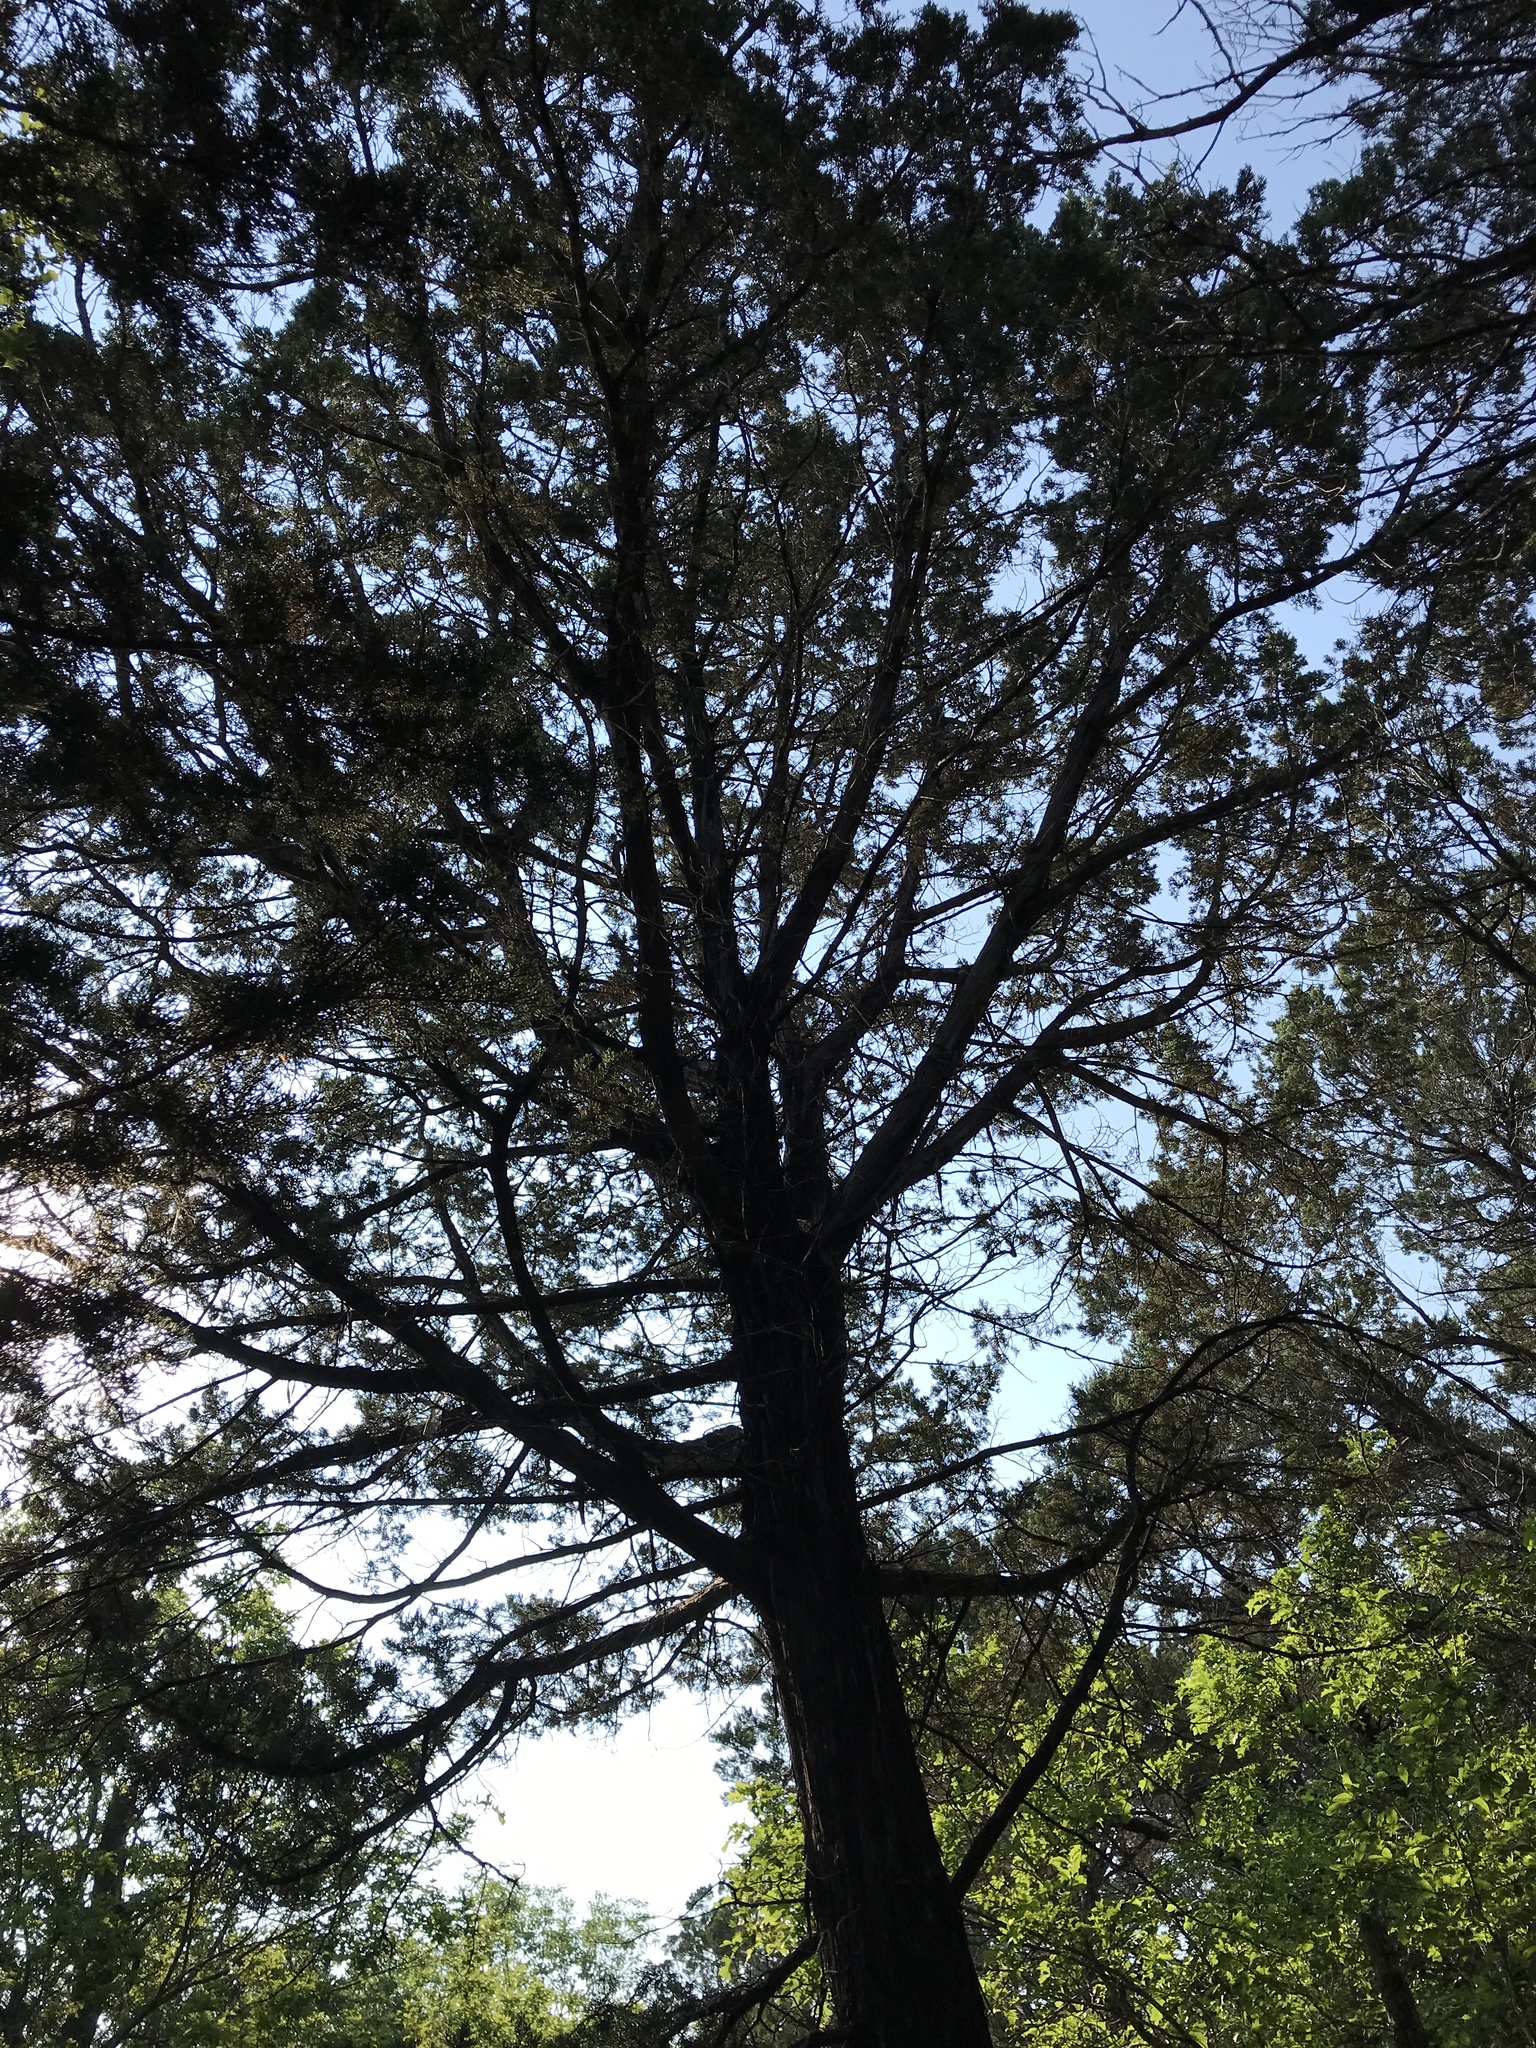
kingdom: Plantae
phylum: Tracheophyta
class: Pinopsida
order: Pinales
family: Cupressaceae
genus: Juniperus
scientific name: Juniperus ashei
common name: Mexican juniper
